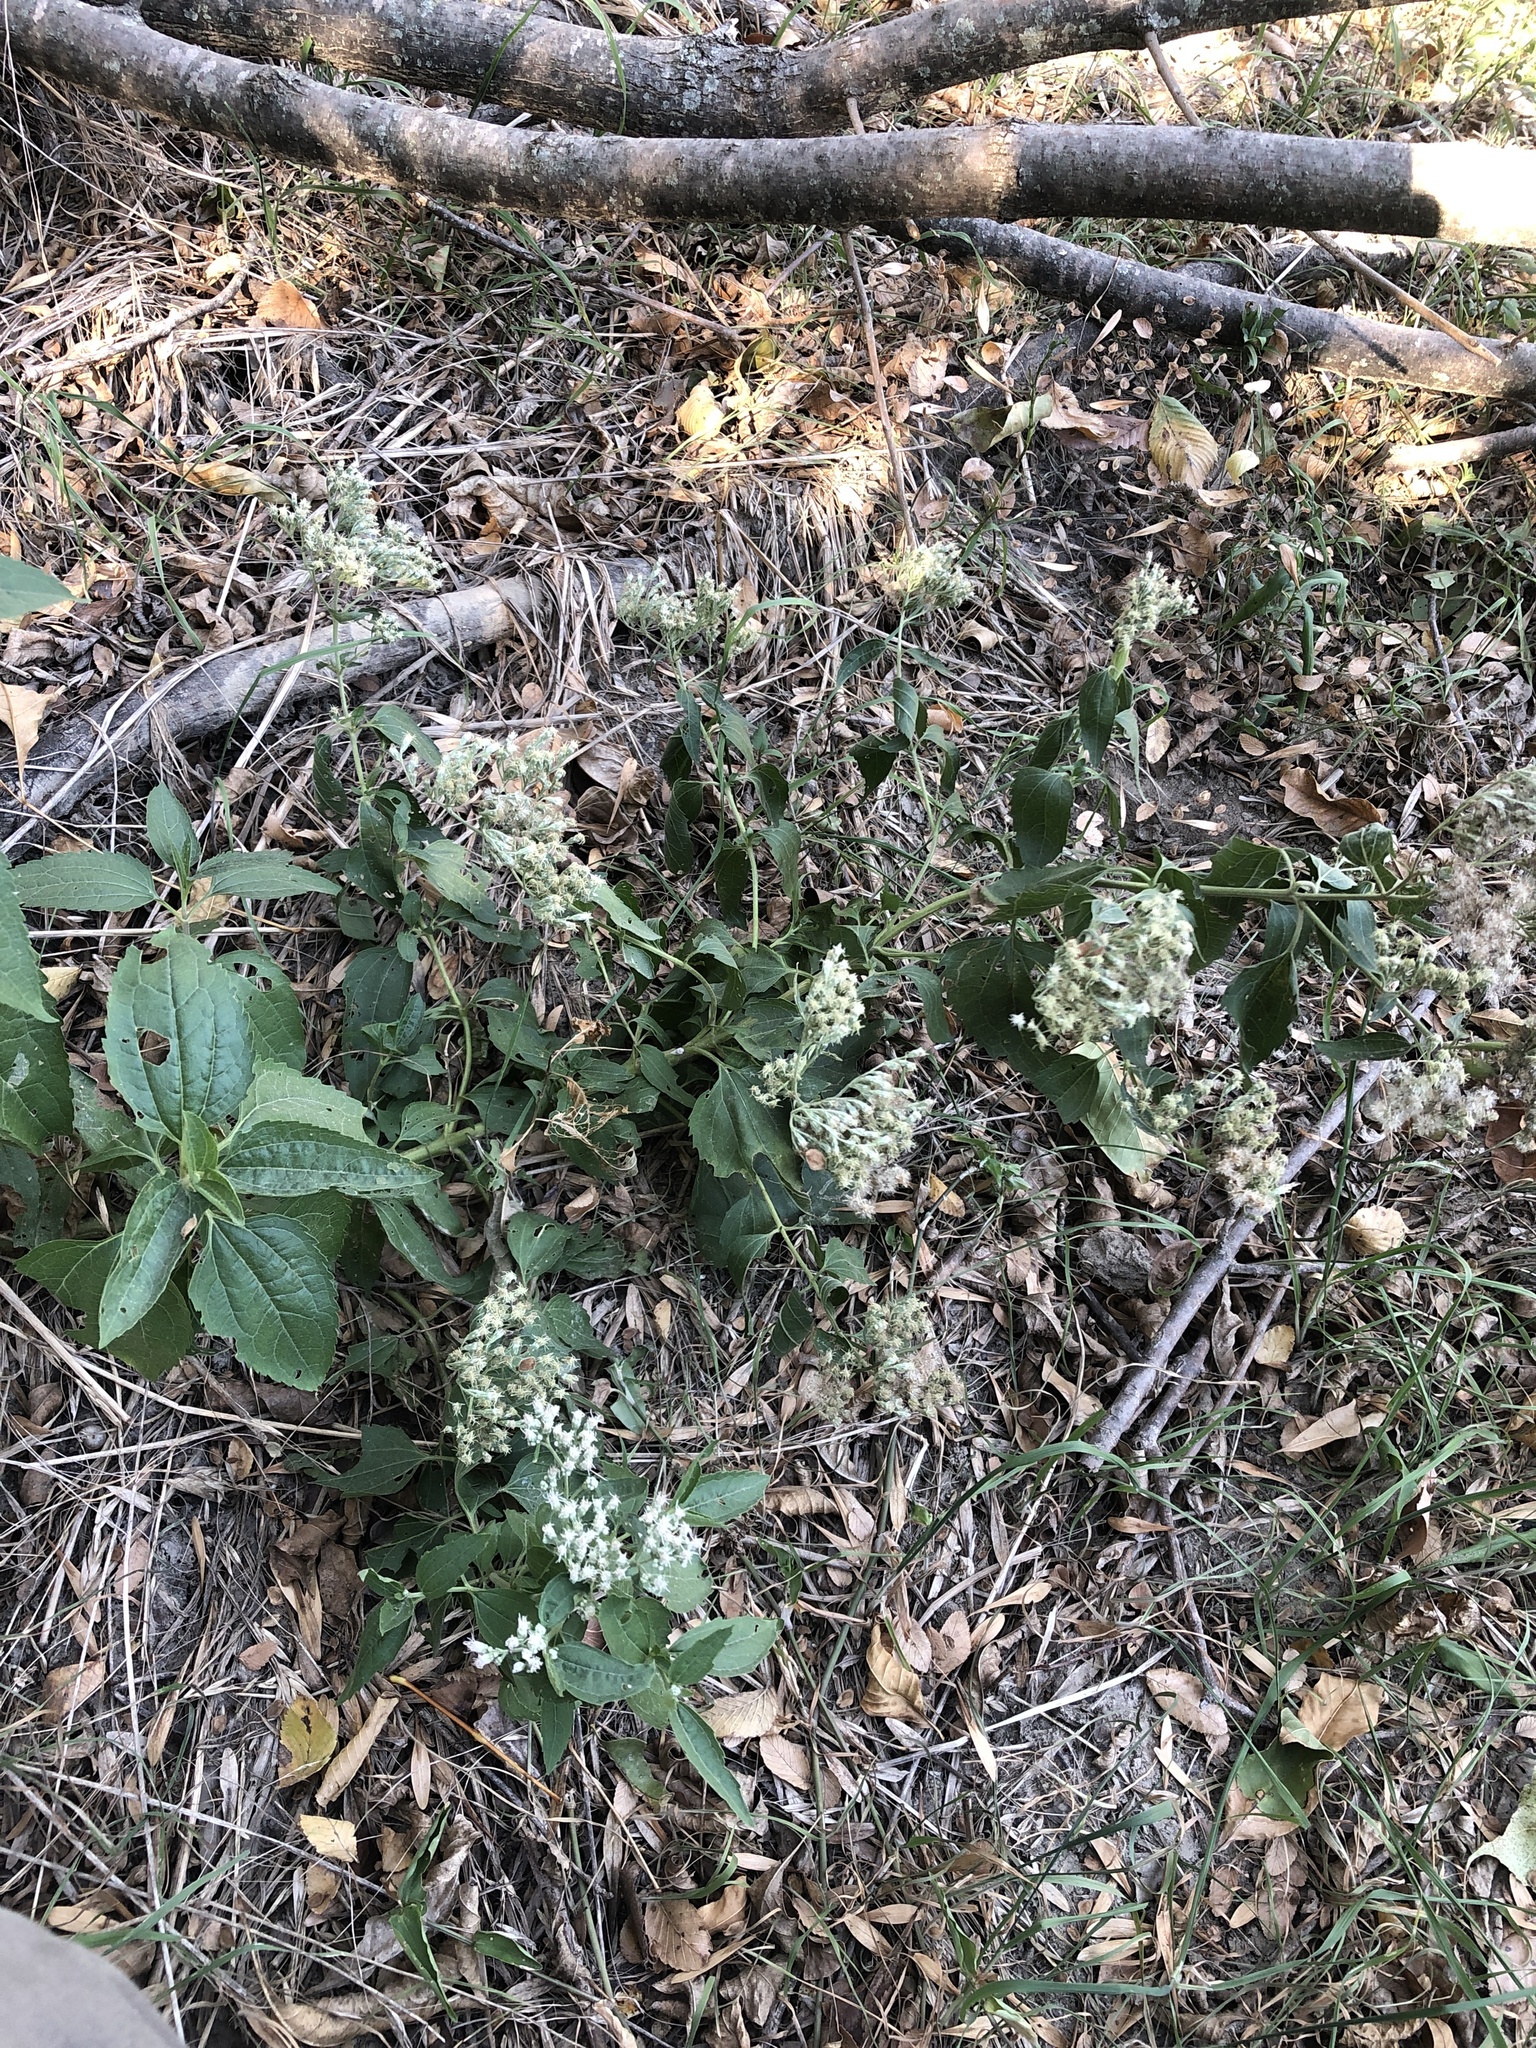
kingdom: Plantae
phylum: Tracheophyta
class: Magnoliopsida
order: Asterales
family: Asteraceae
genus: Eupatorium
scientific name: Eupatorium serotinum
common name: Late boneset
